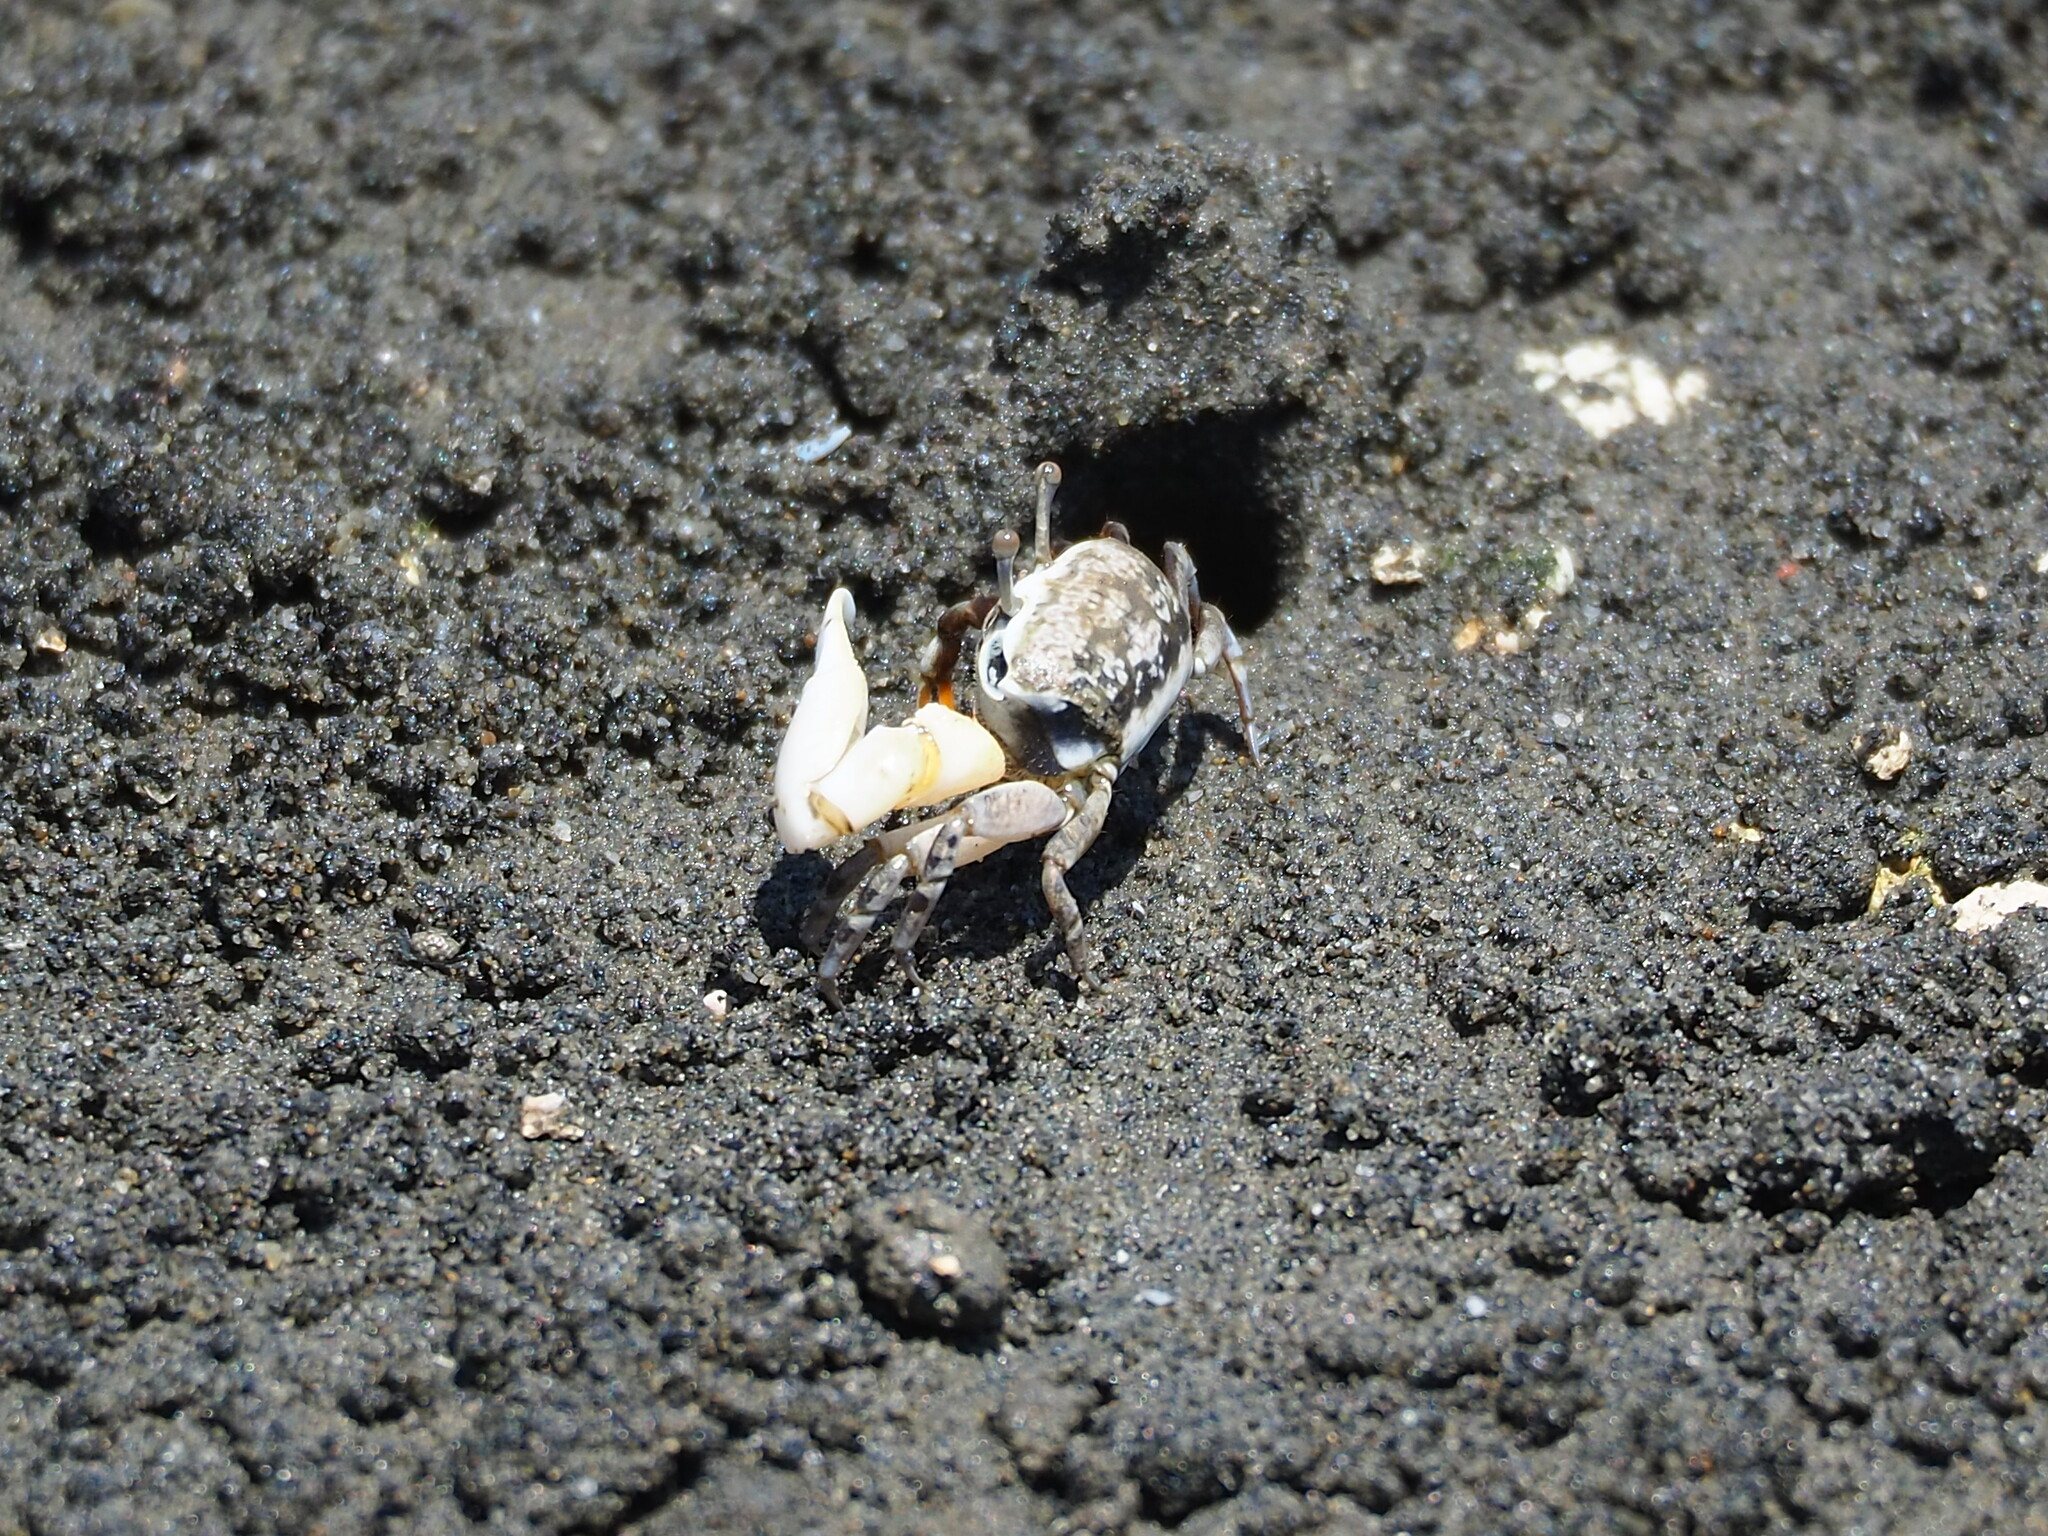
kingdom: Animalia
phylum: Arthropoda
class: Malacostraca
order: Decapoda
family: Ocypodidae
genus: Austruca
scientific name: Austruca lactea
